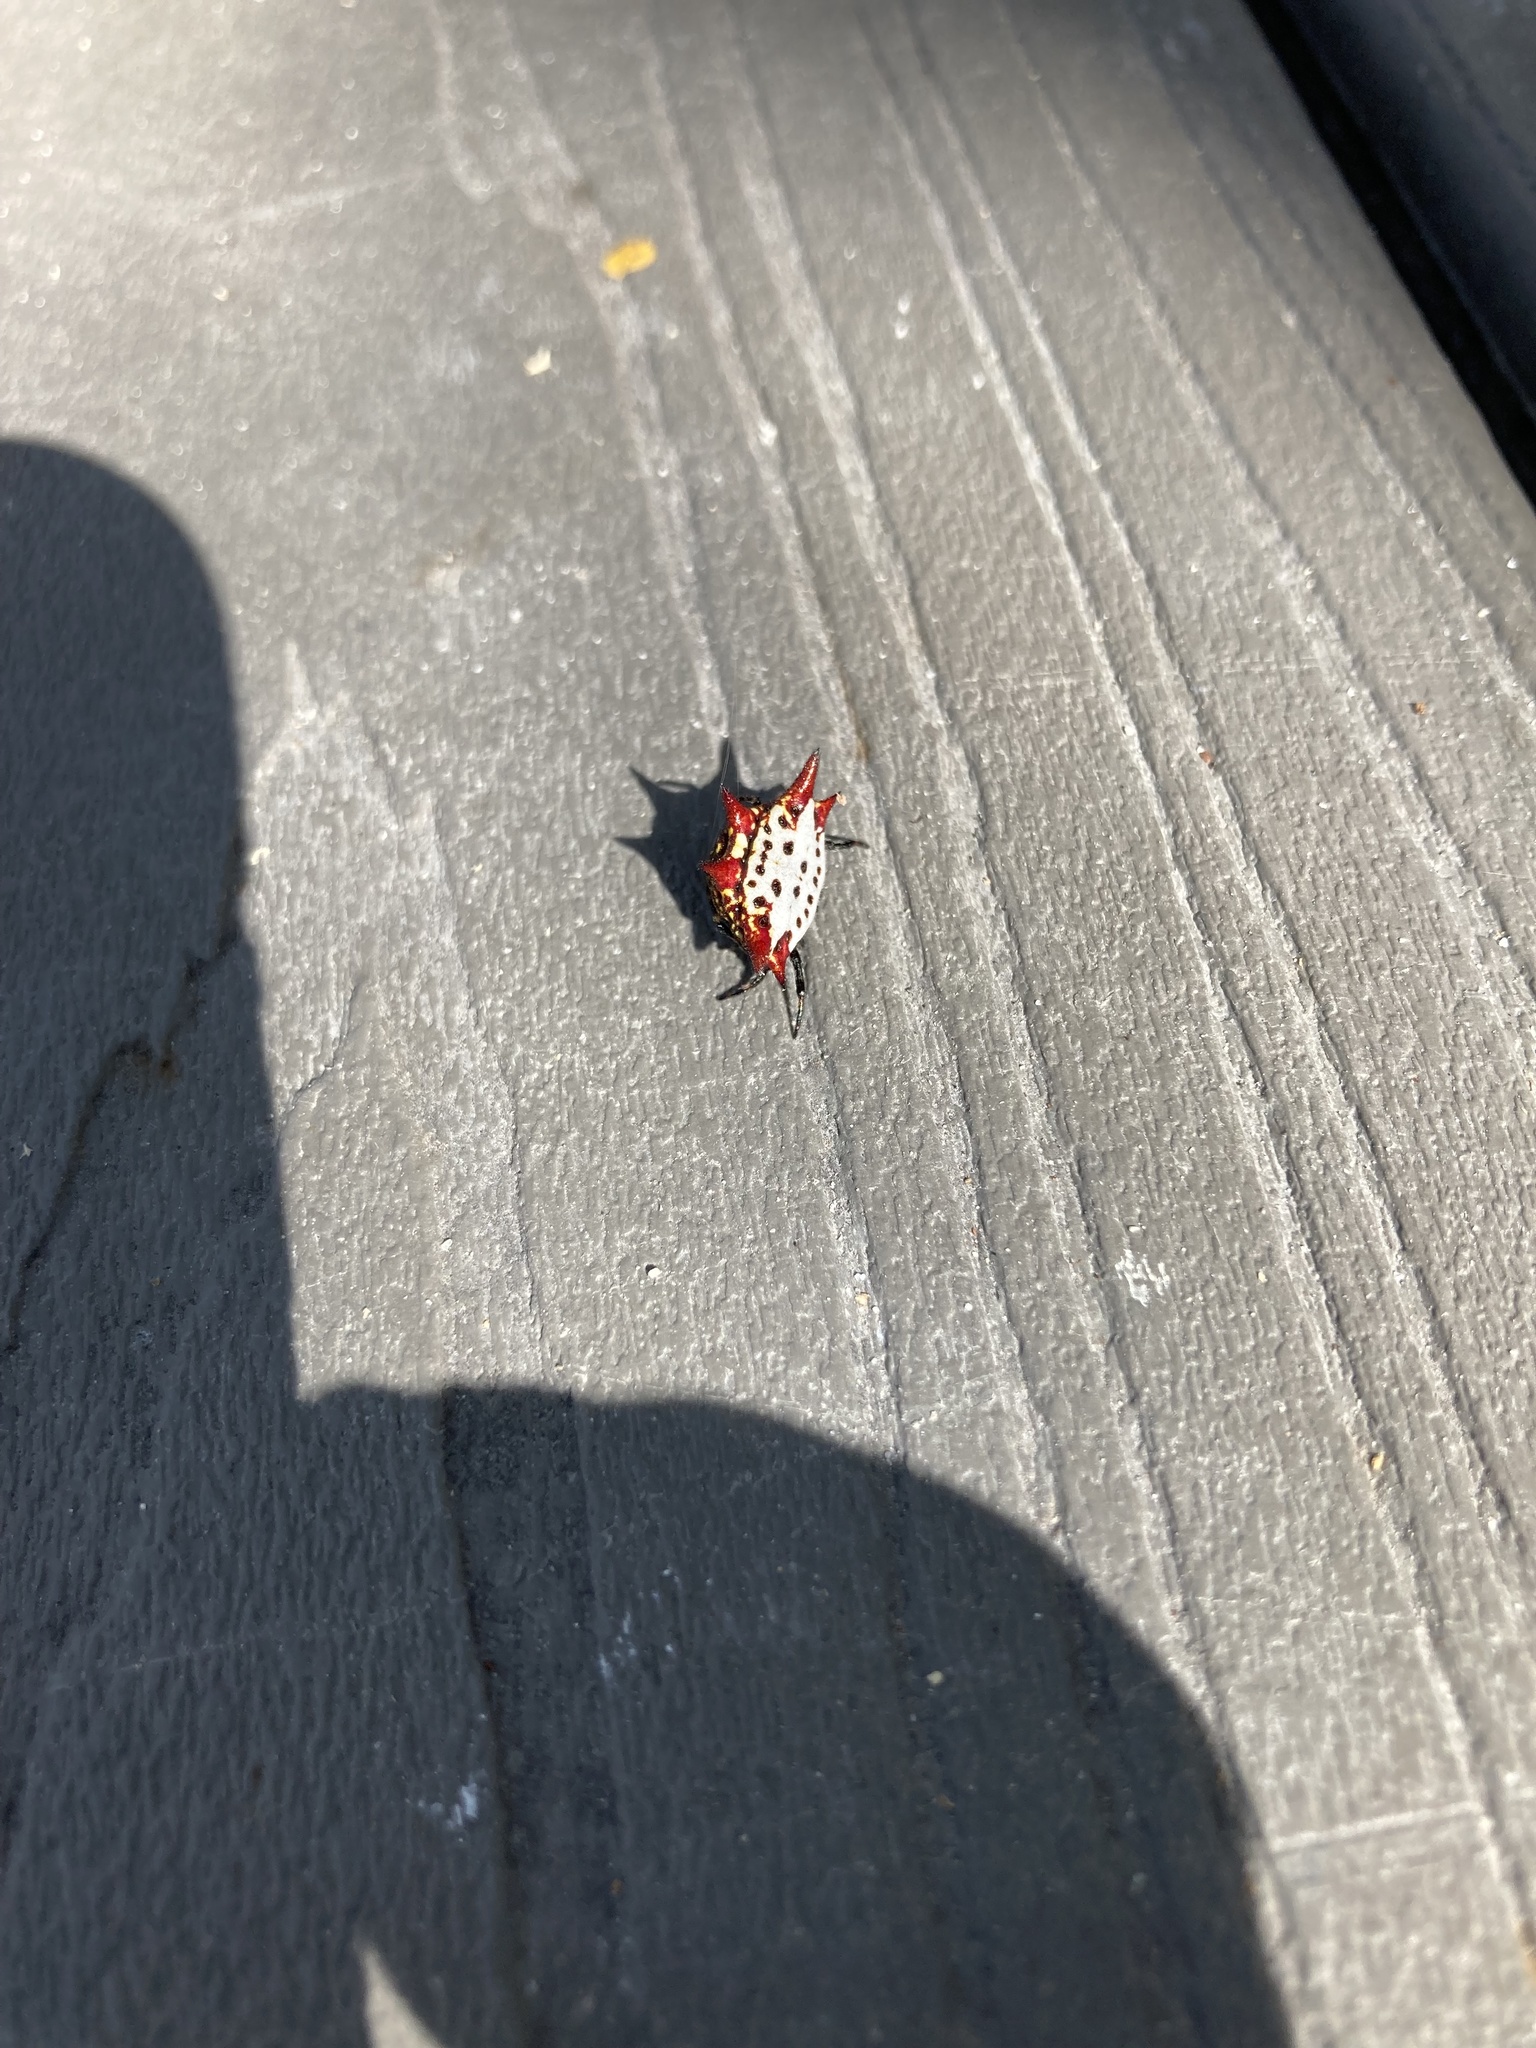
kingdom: Animalia
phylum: Arthropoda
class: Arachnida
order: Araneae
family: Araneidae
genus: Gasteracantha
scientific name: Gasteracantha cancriformis
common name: Orb weavers
